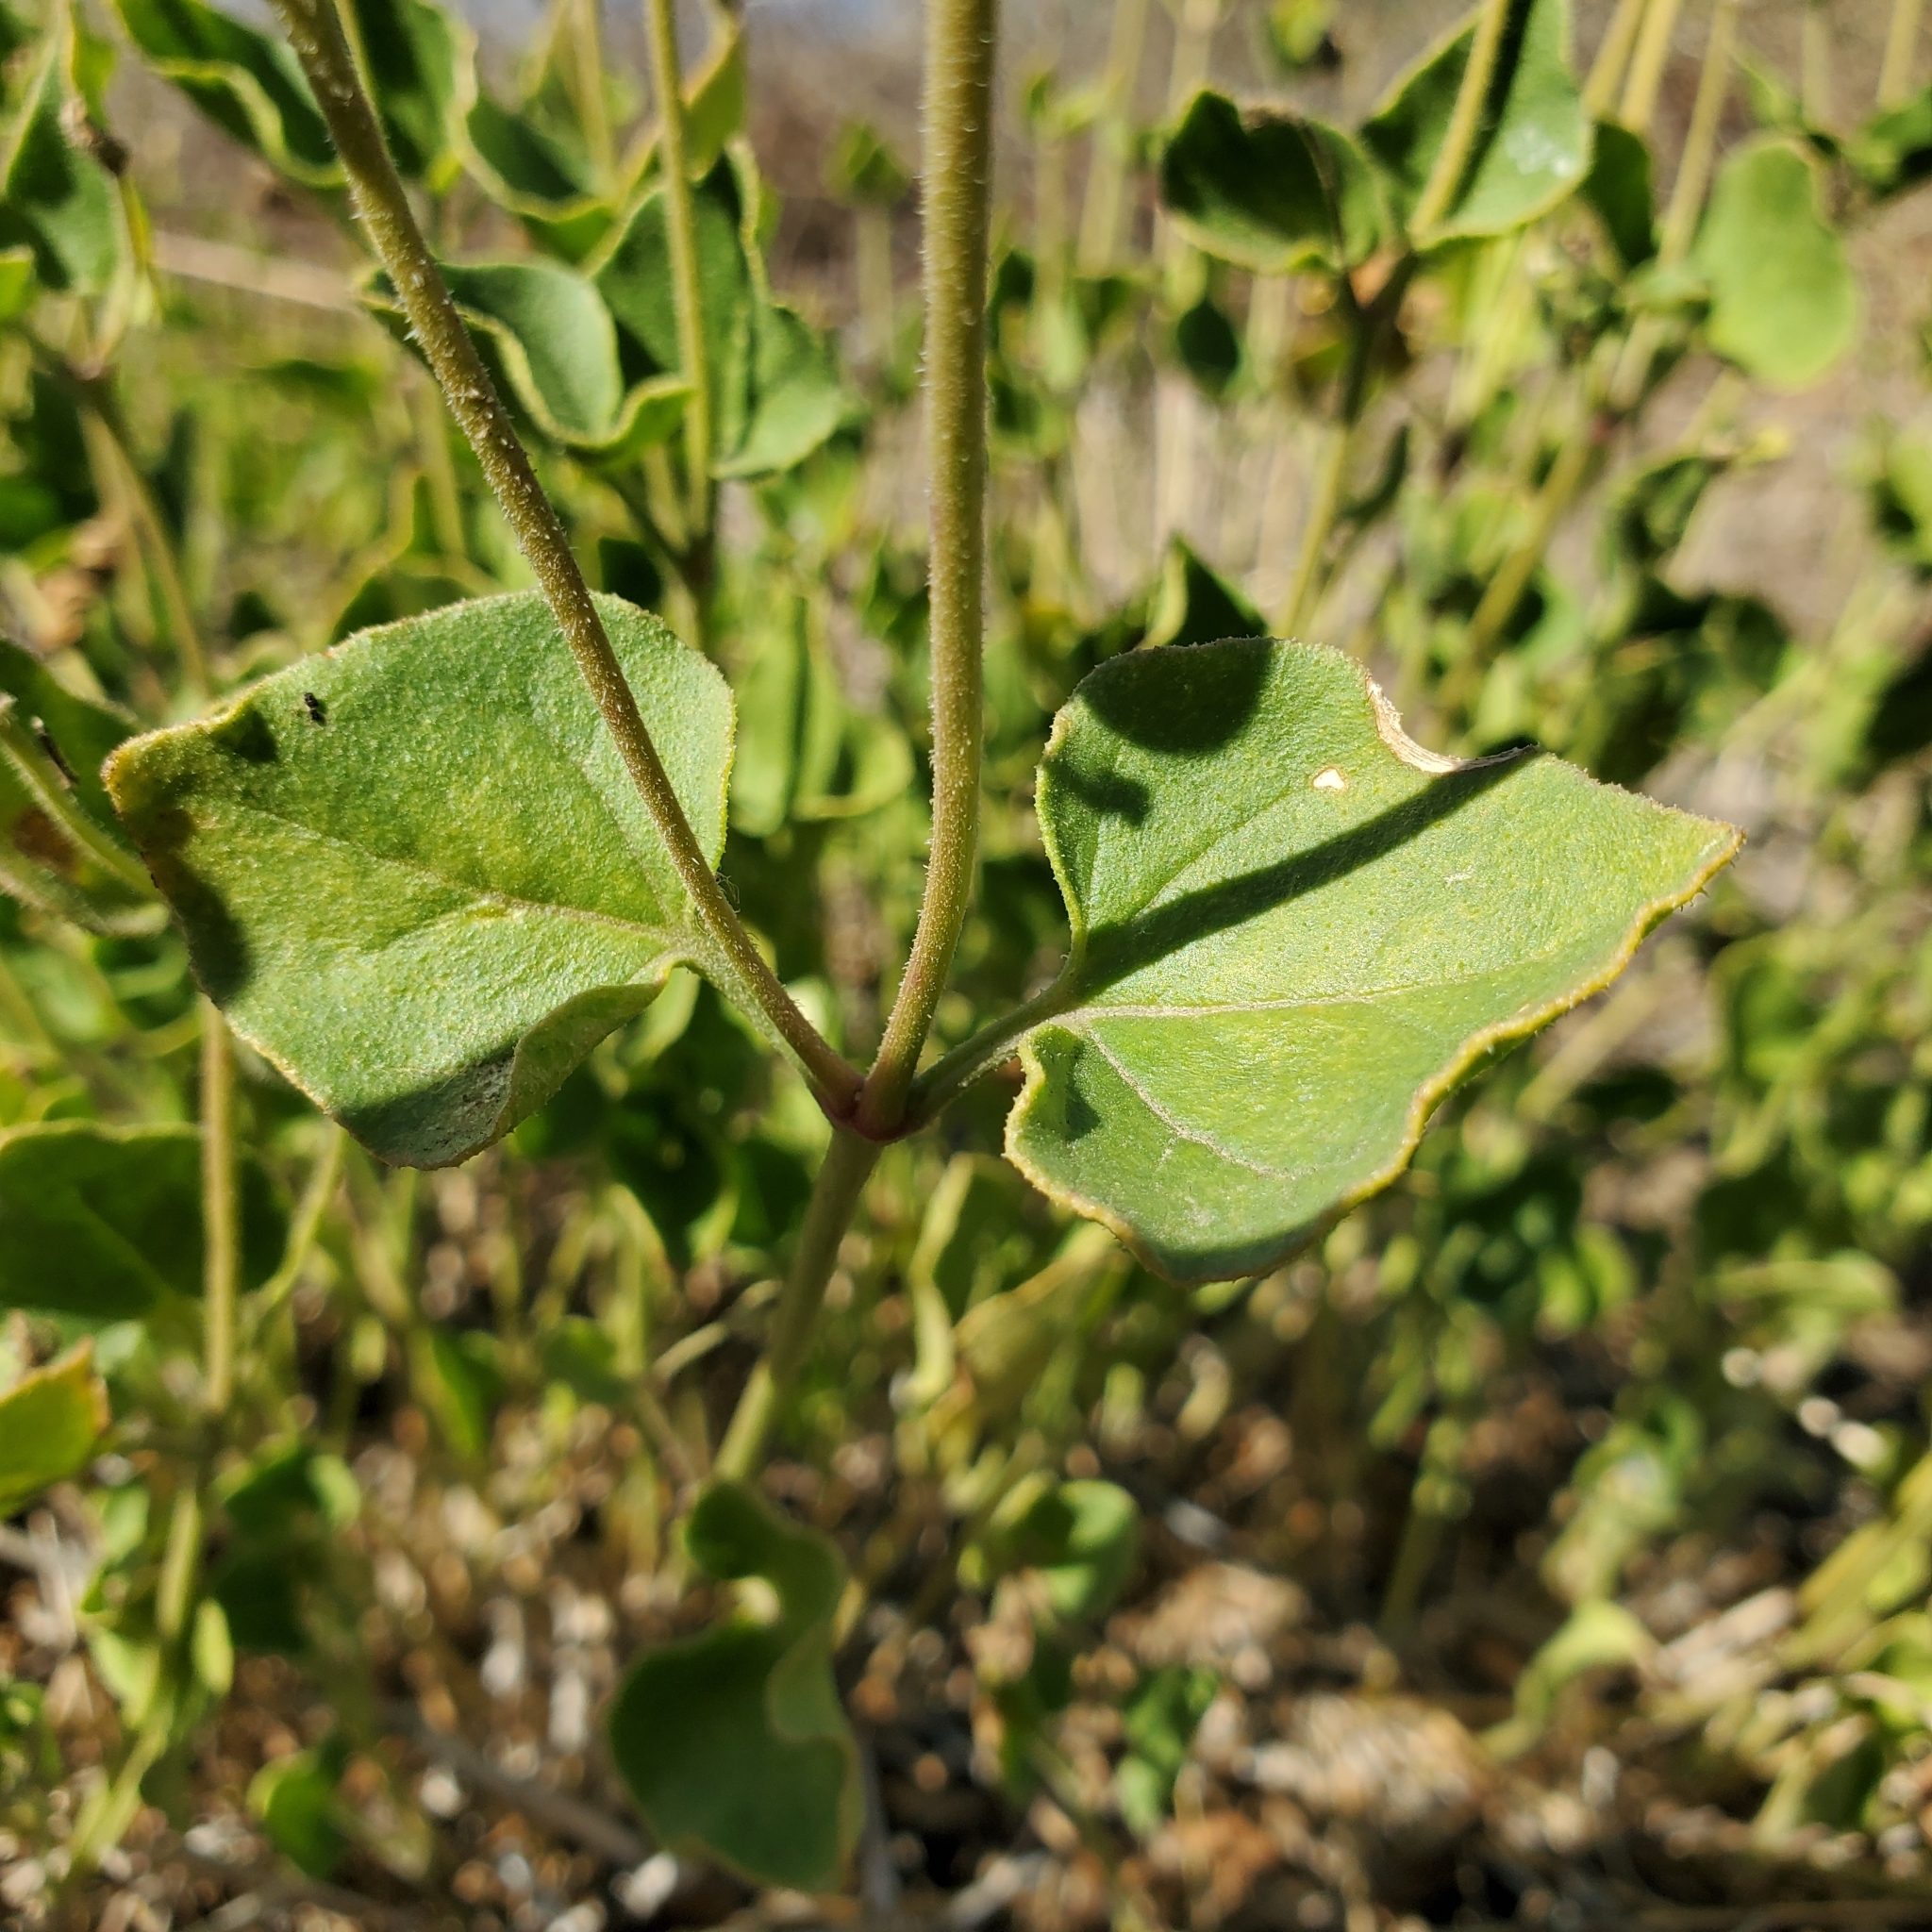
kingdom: Plantae
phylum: Tracheophyta
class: Magnoliopsida
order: Caryophyllales
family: Nyctaginaceae
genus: Mirabilis
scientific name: Mirabilis laevis
